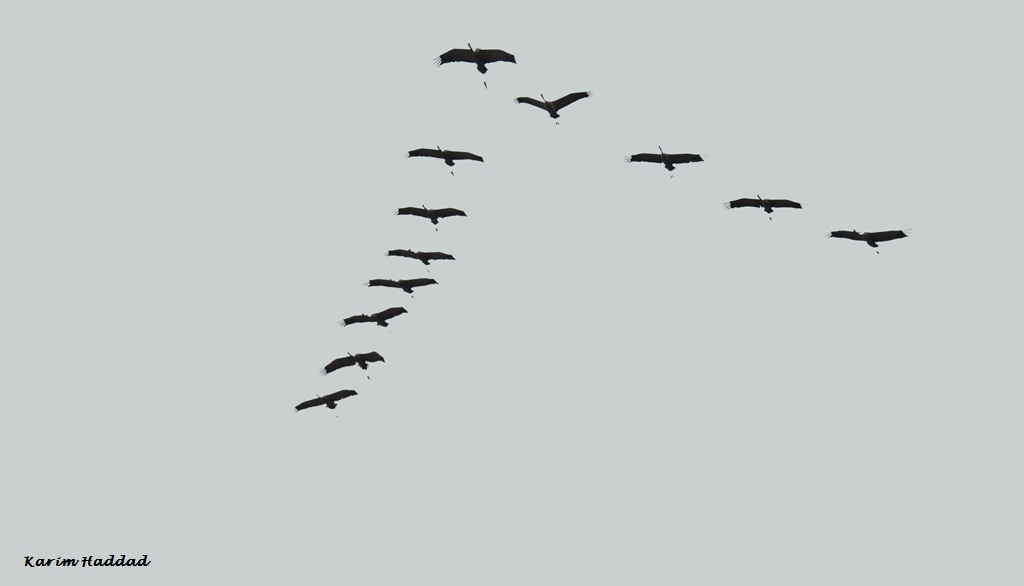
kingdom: Animalia
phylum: Chordata
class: Aves
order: Gruiformes
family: Gruidae
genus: Grus
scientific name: Grus grus
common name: Common crane
